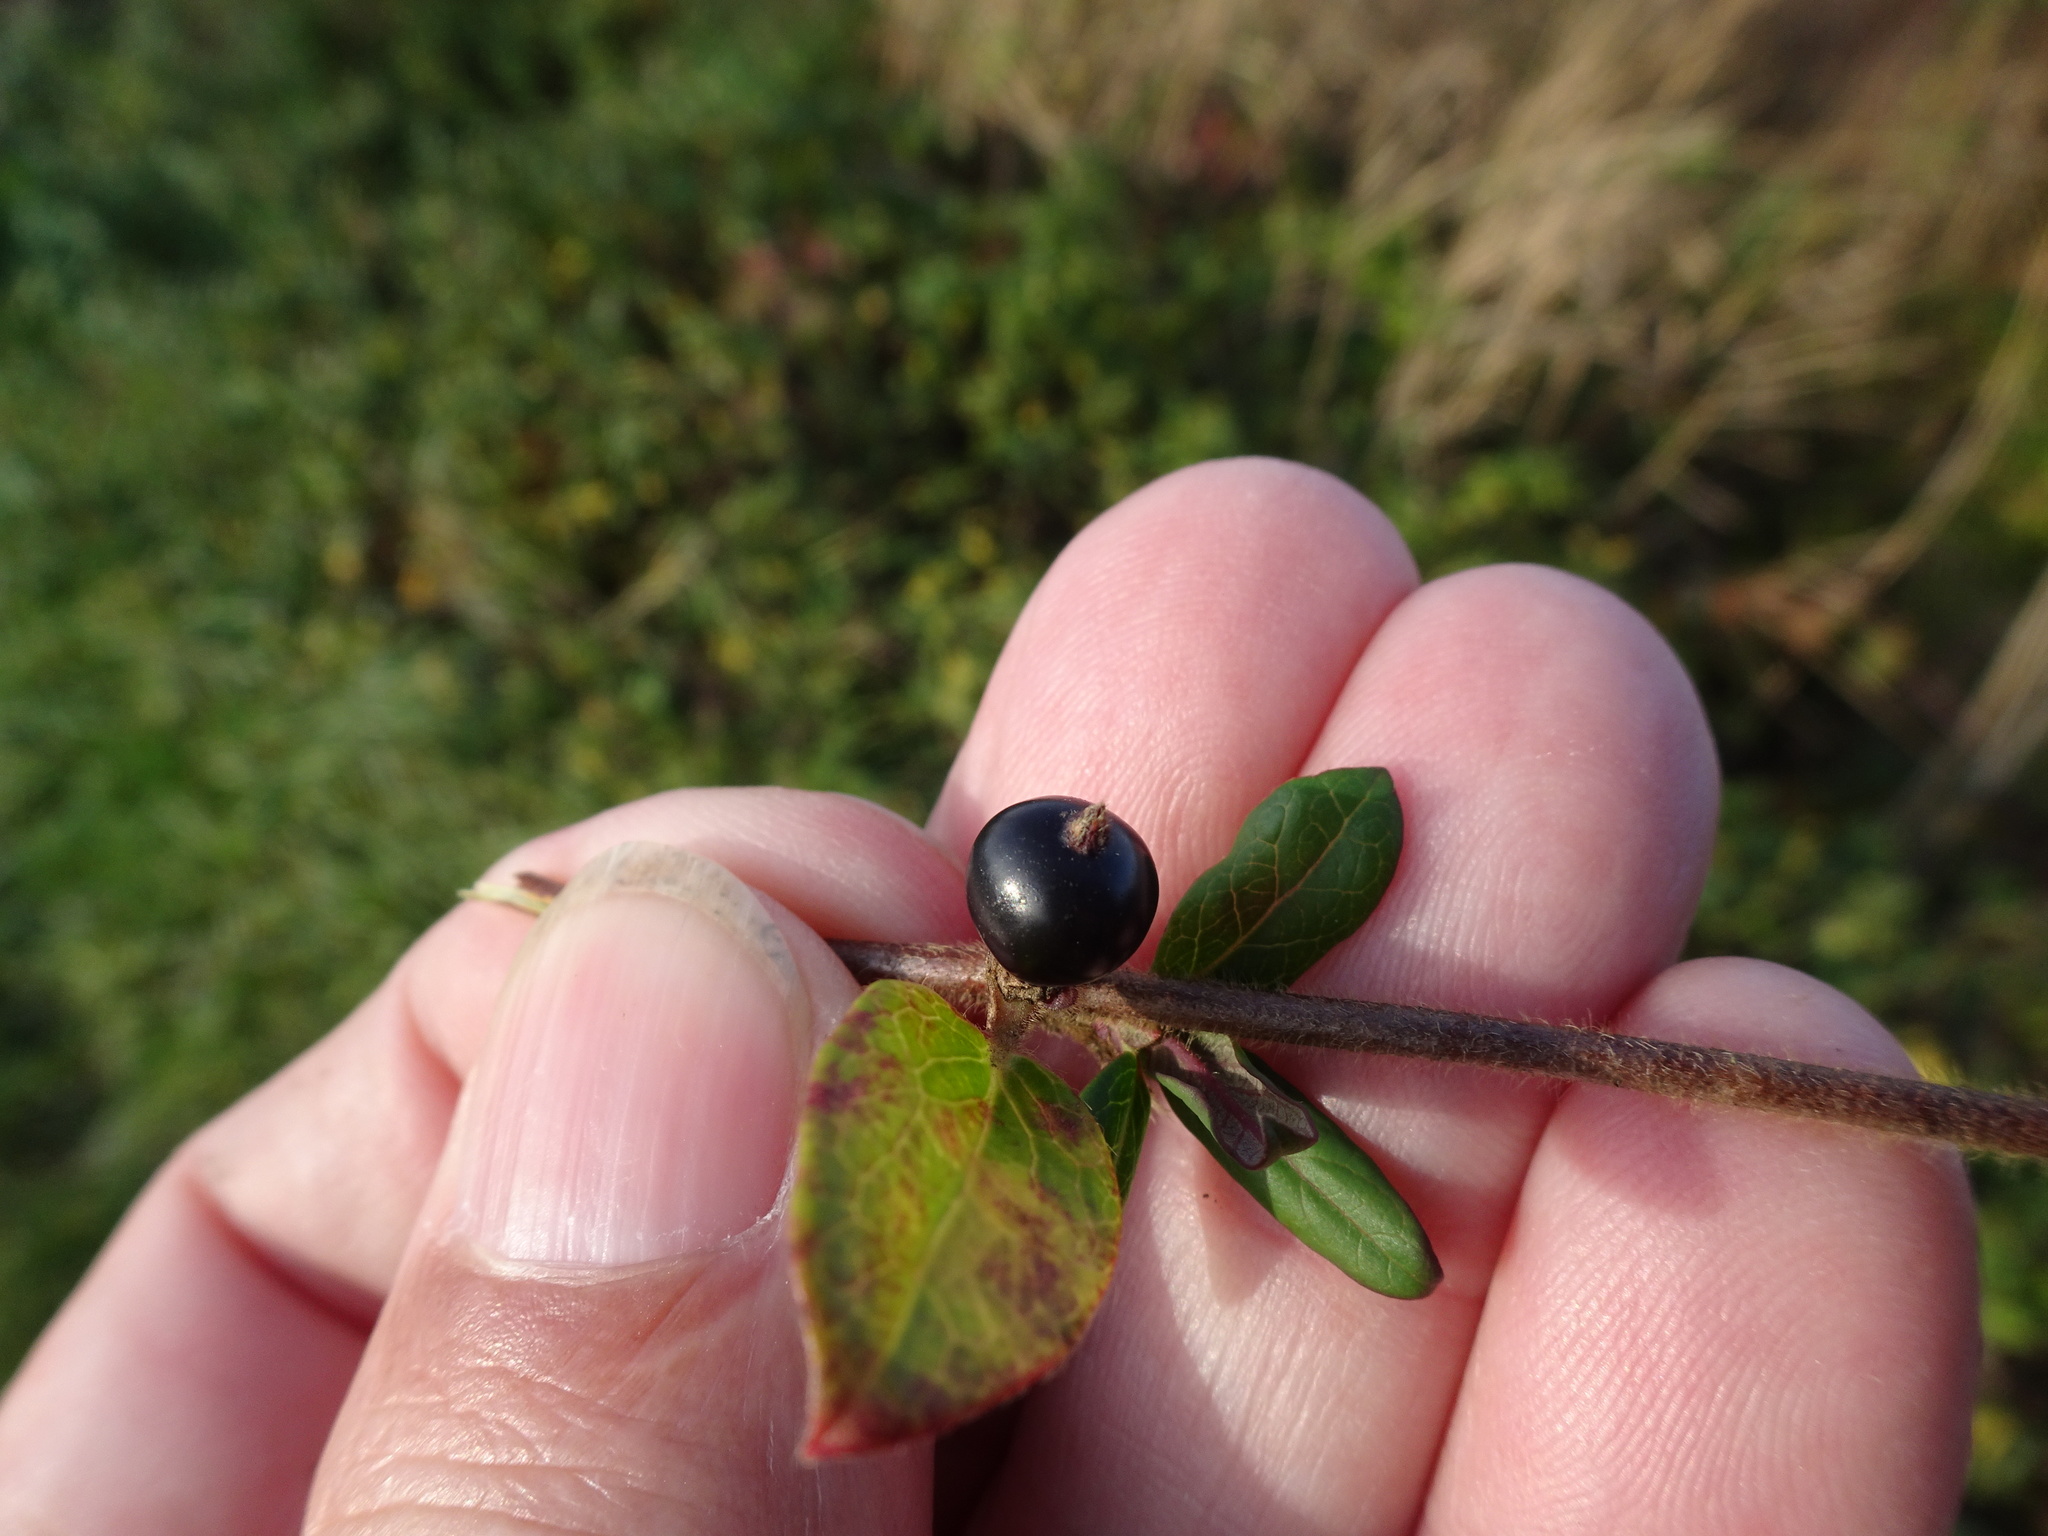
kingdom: Plantae
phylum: Tracheophyta
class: Magnoliopsida
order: Dipsacales
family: Caprifoliaceae
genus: Lonicera
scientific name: Lonicera japonica
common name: Japanese honeysuckle
